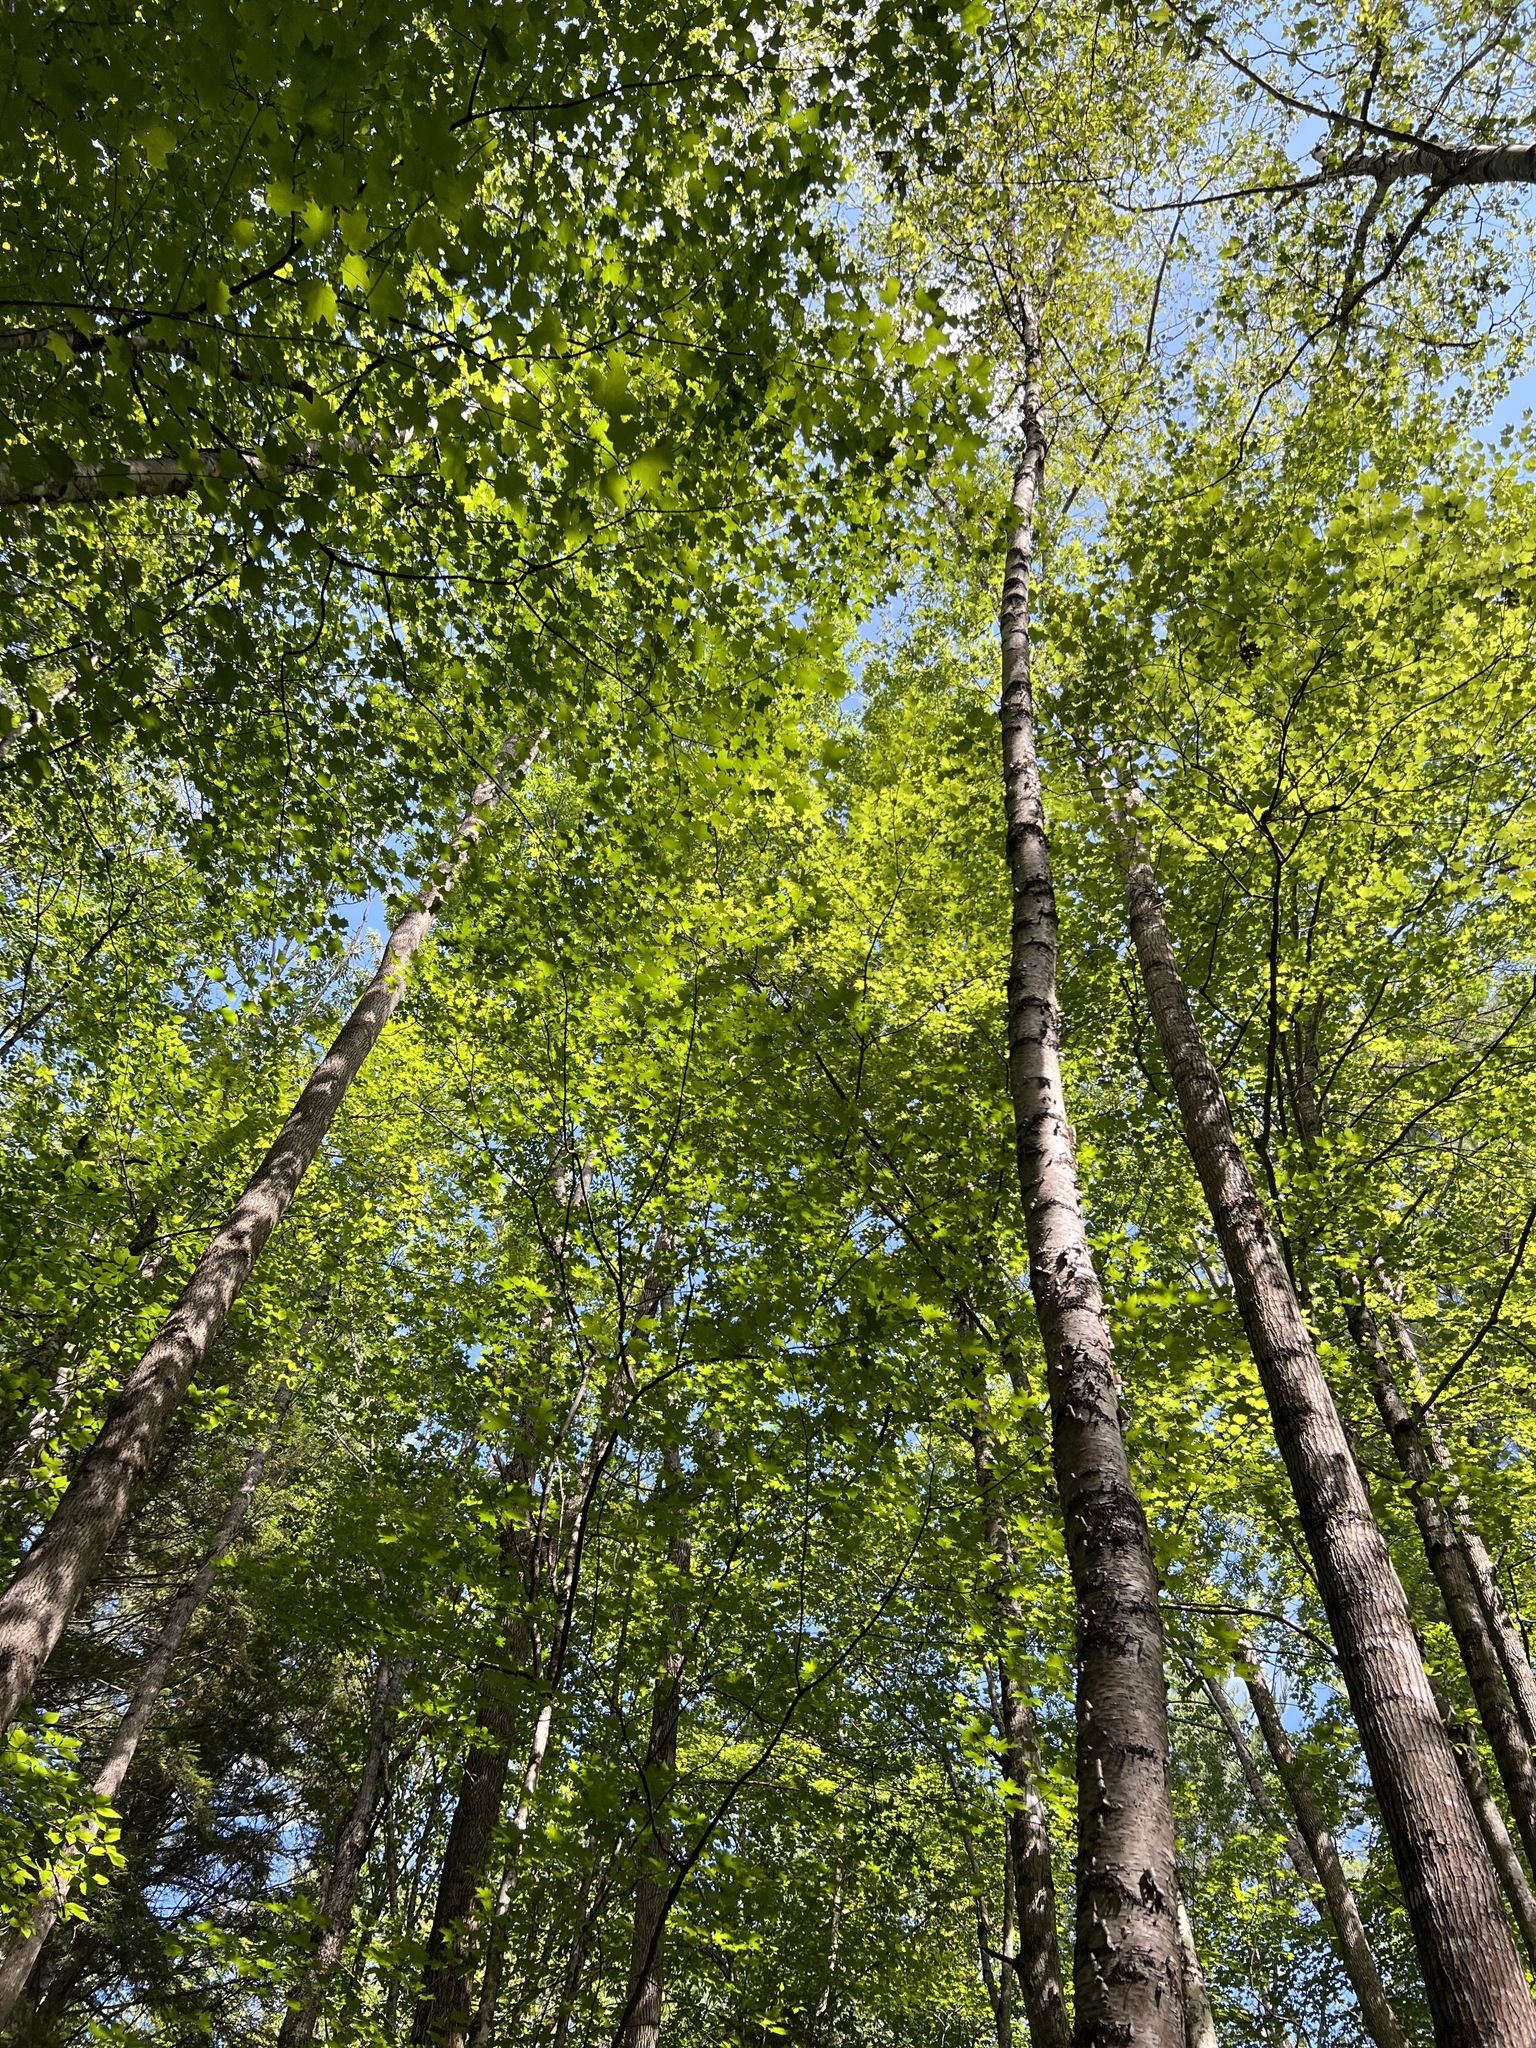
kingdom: Plantae
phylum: Tracheophyta
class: Magnoliopsida
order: Sapindales
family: Sapindaceae
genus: Acer
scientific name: Acer saccharum
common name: Sugar maple
